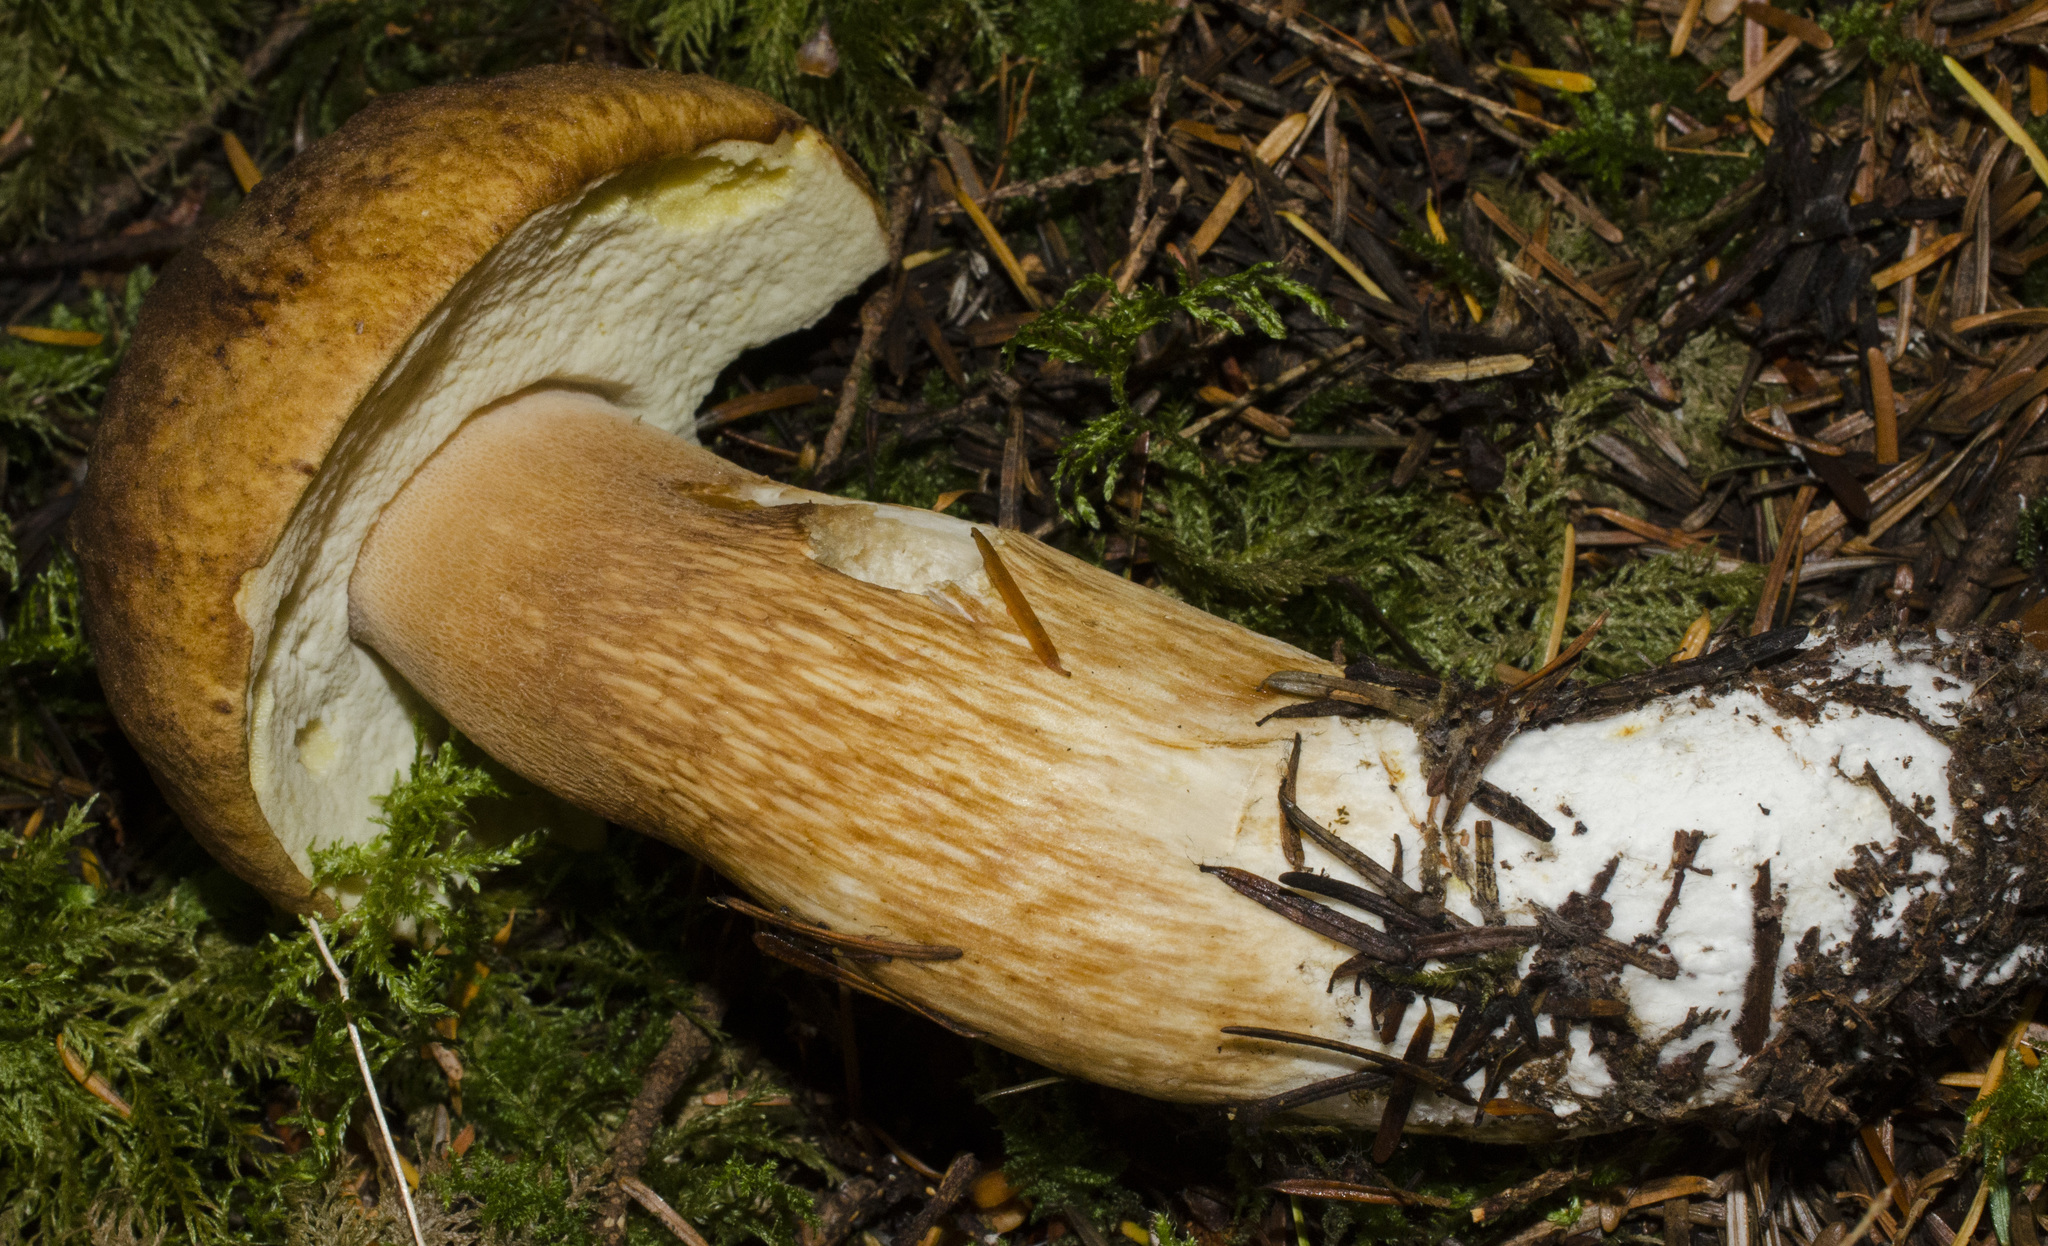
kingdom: Fungi
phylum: Basidiomycota
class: Agaricomycetes
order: Boletales
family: Boletaceae
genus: Boletus
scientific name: Boletus fibrillosus
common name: Fib king
